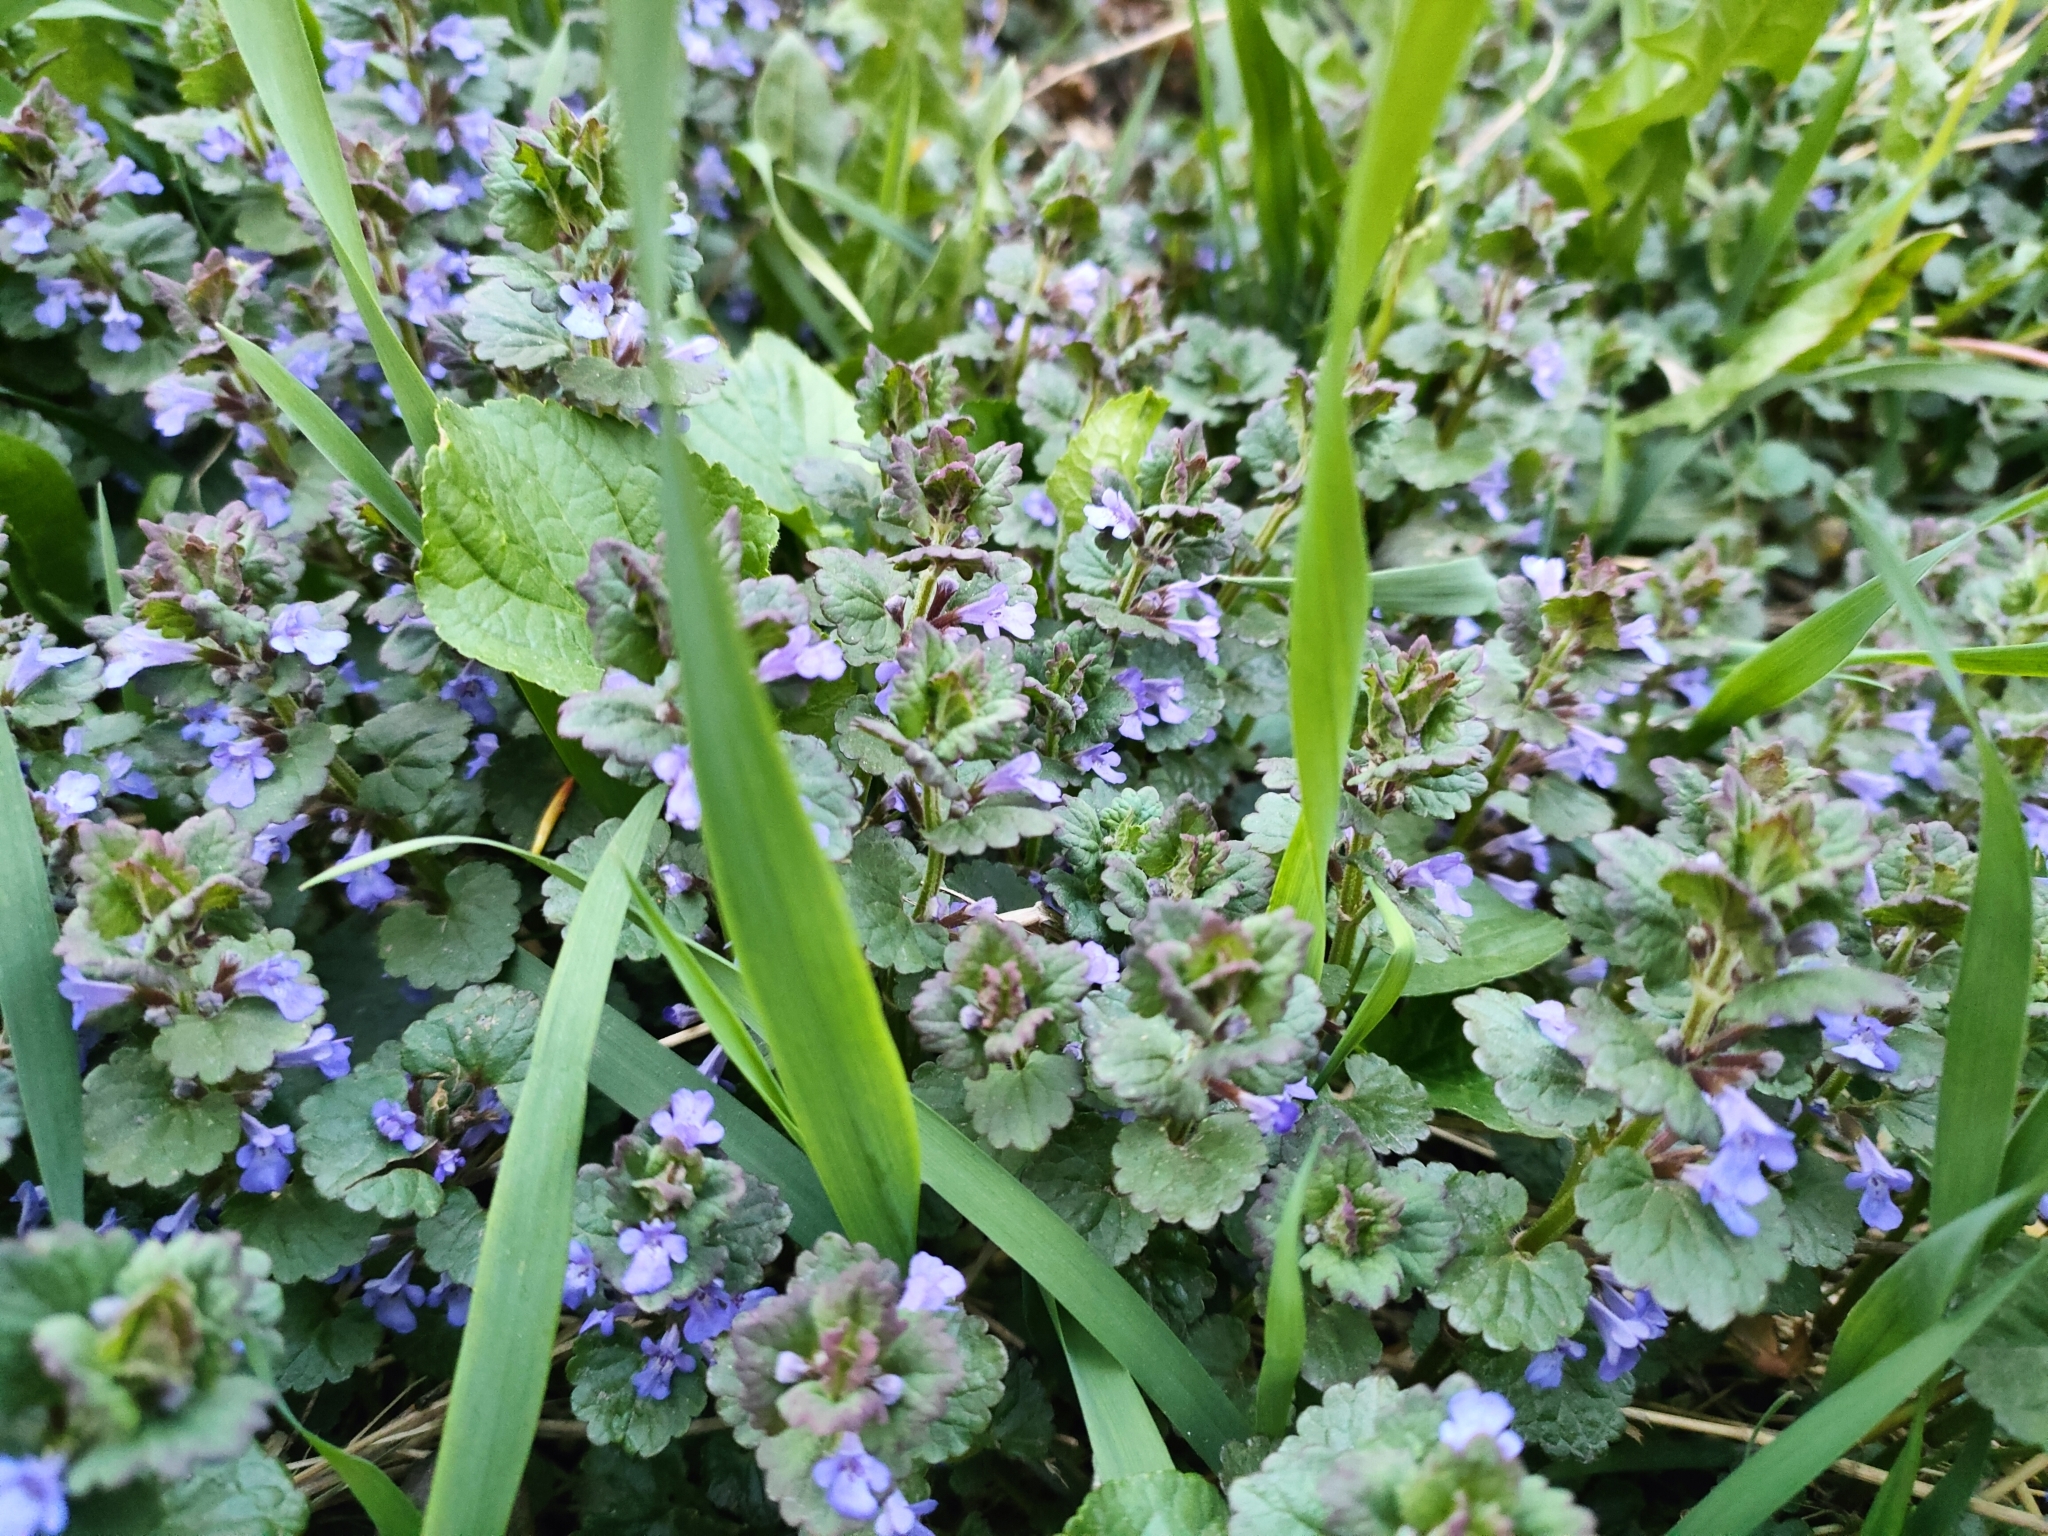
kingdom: Plantae
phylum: Tracheophyta
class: Magnoliopsida
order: Lamiales
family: Lamiaceae
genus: Glechoma
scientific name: Glechoma hederacea
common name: Ground ivy
